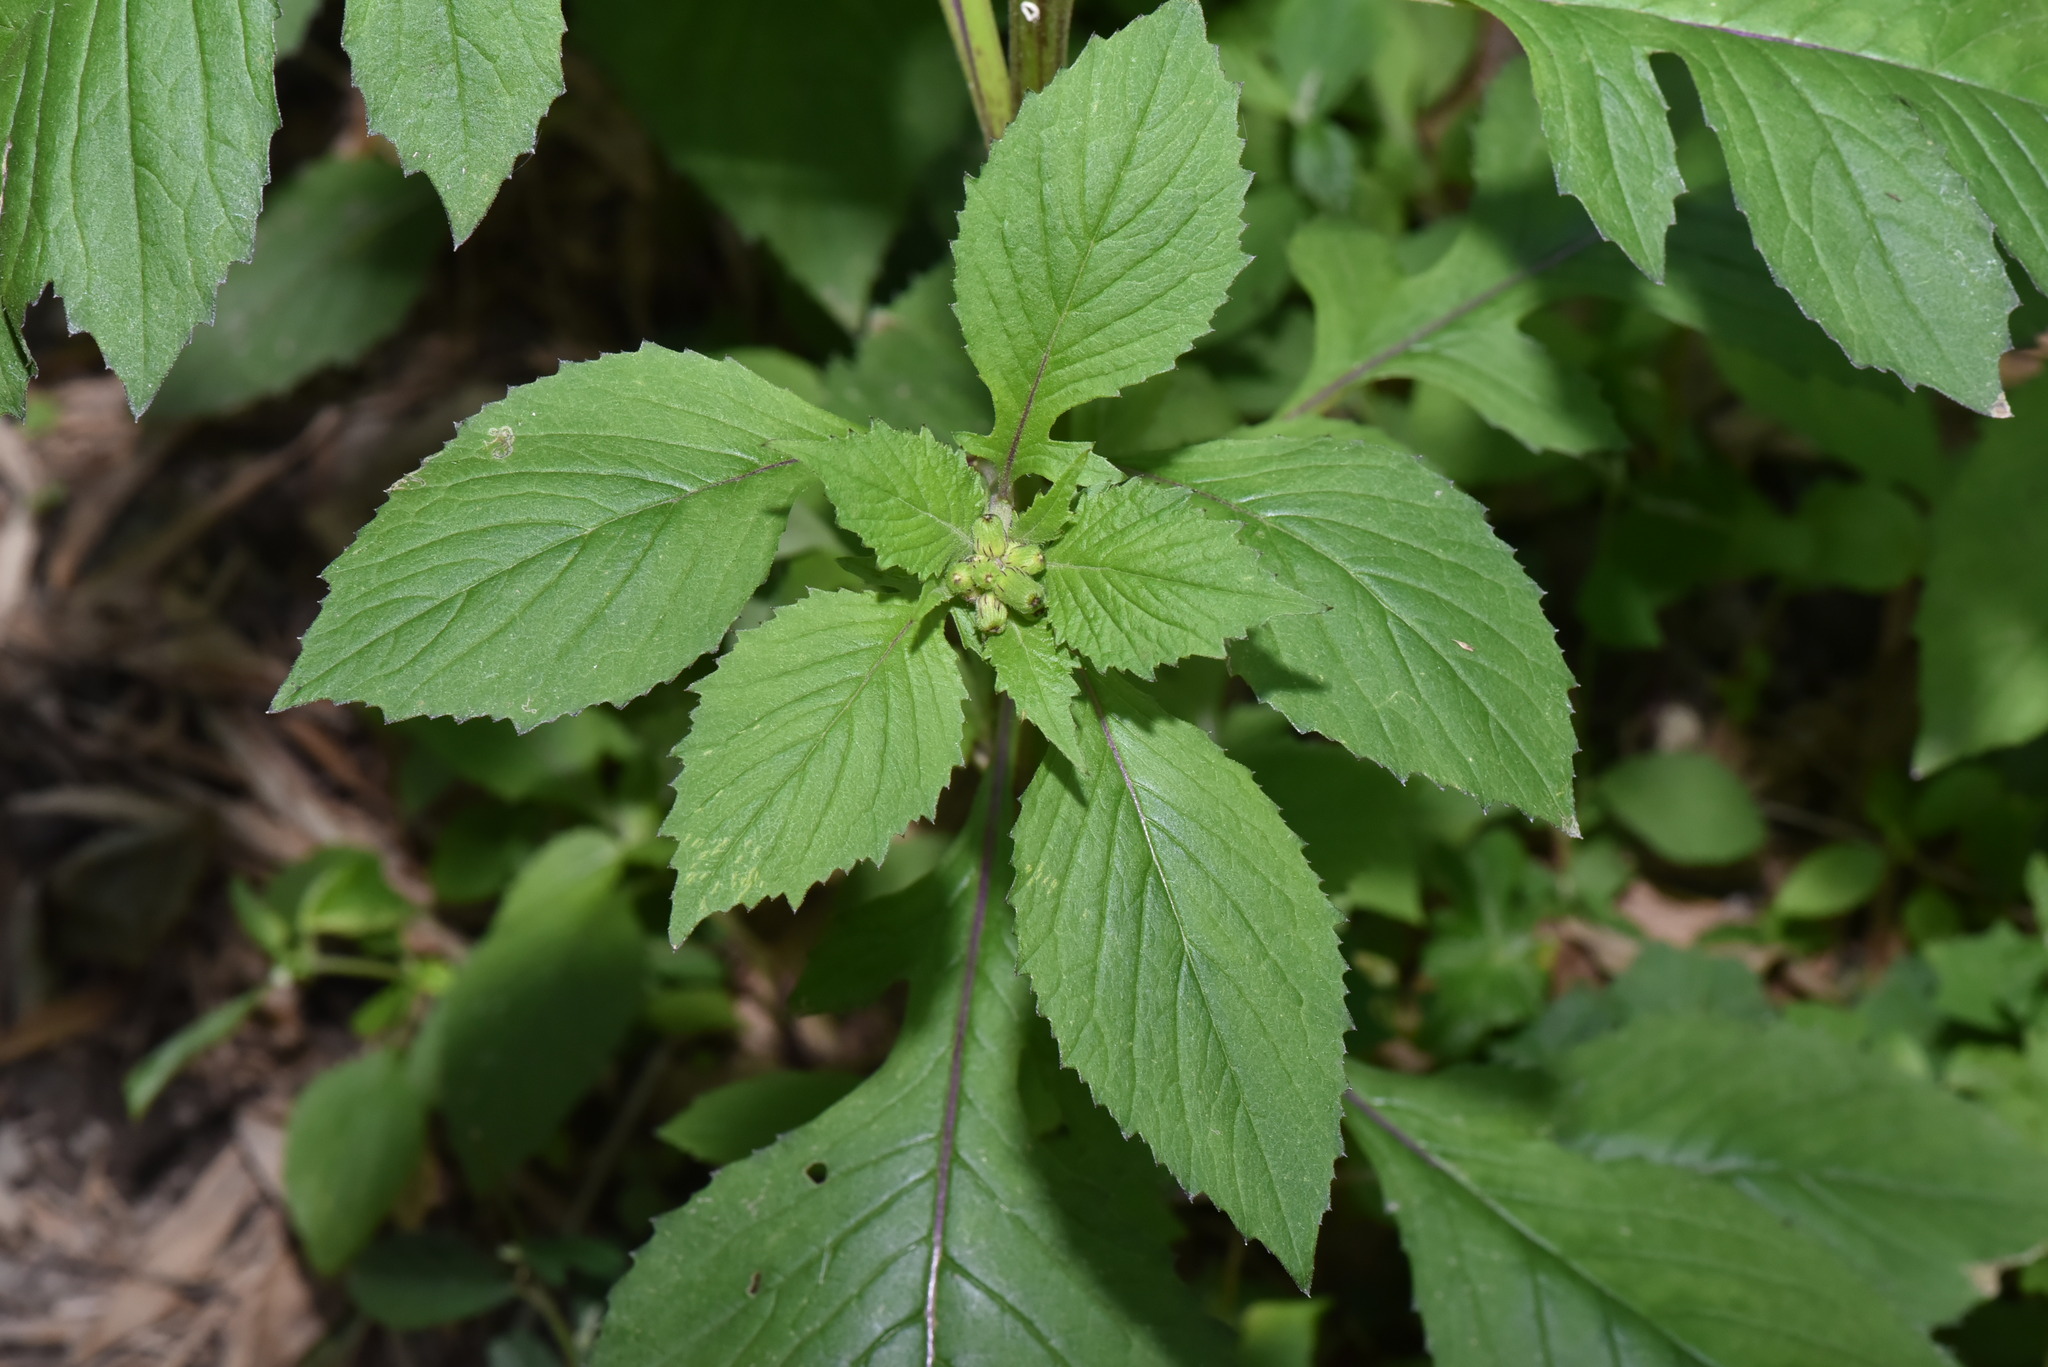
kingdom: Plantae
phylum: Tracheophyta
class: Magnoliopsida
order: Asterales
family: Asteraceae
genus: Crassocephalum
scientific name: Crassocephalum crepidioides
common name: Redflower ragleaf
